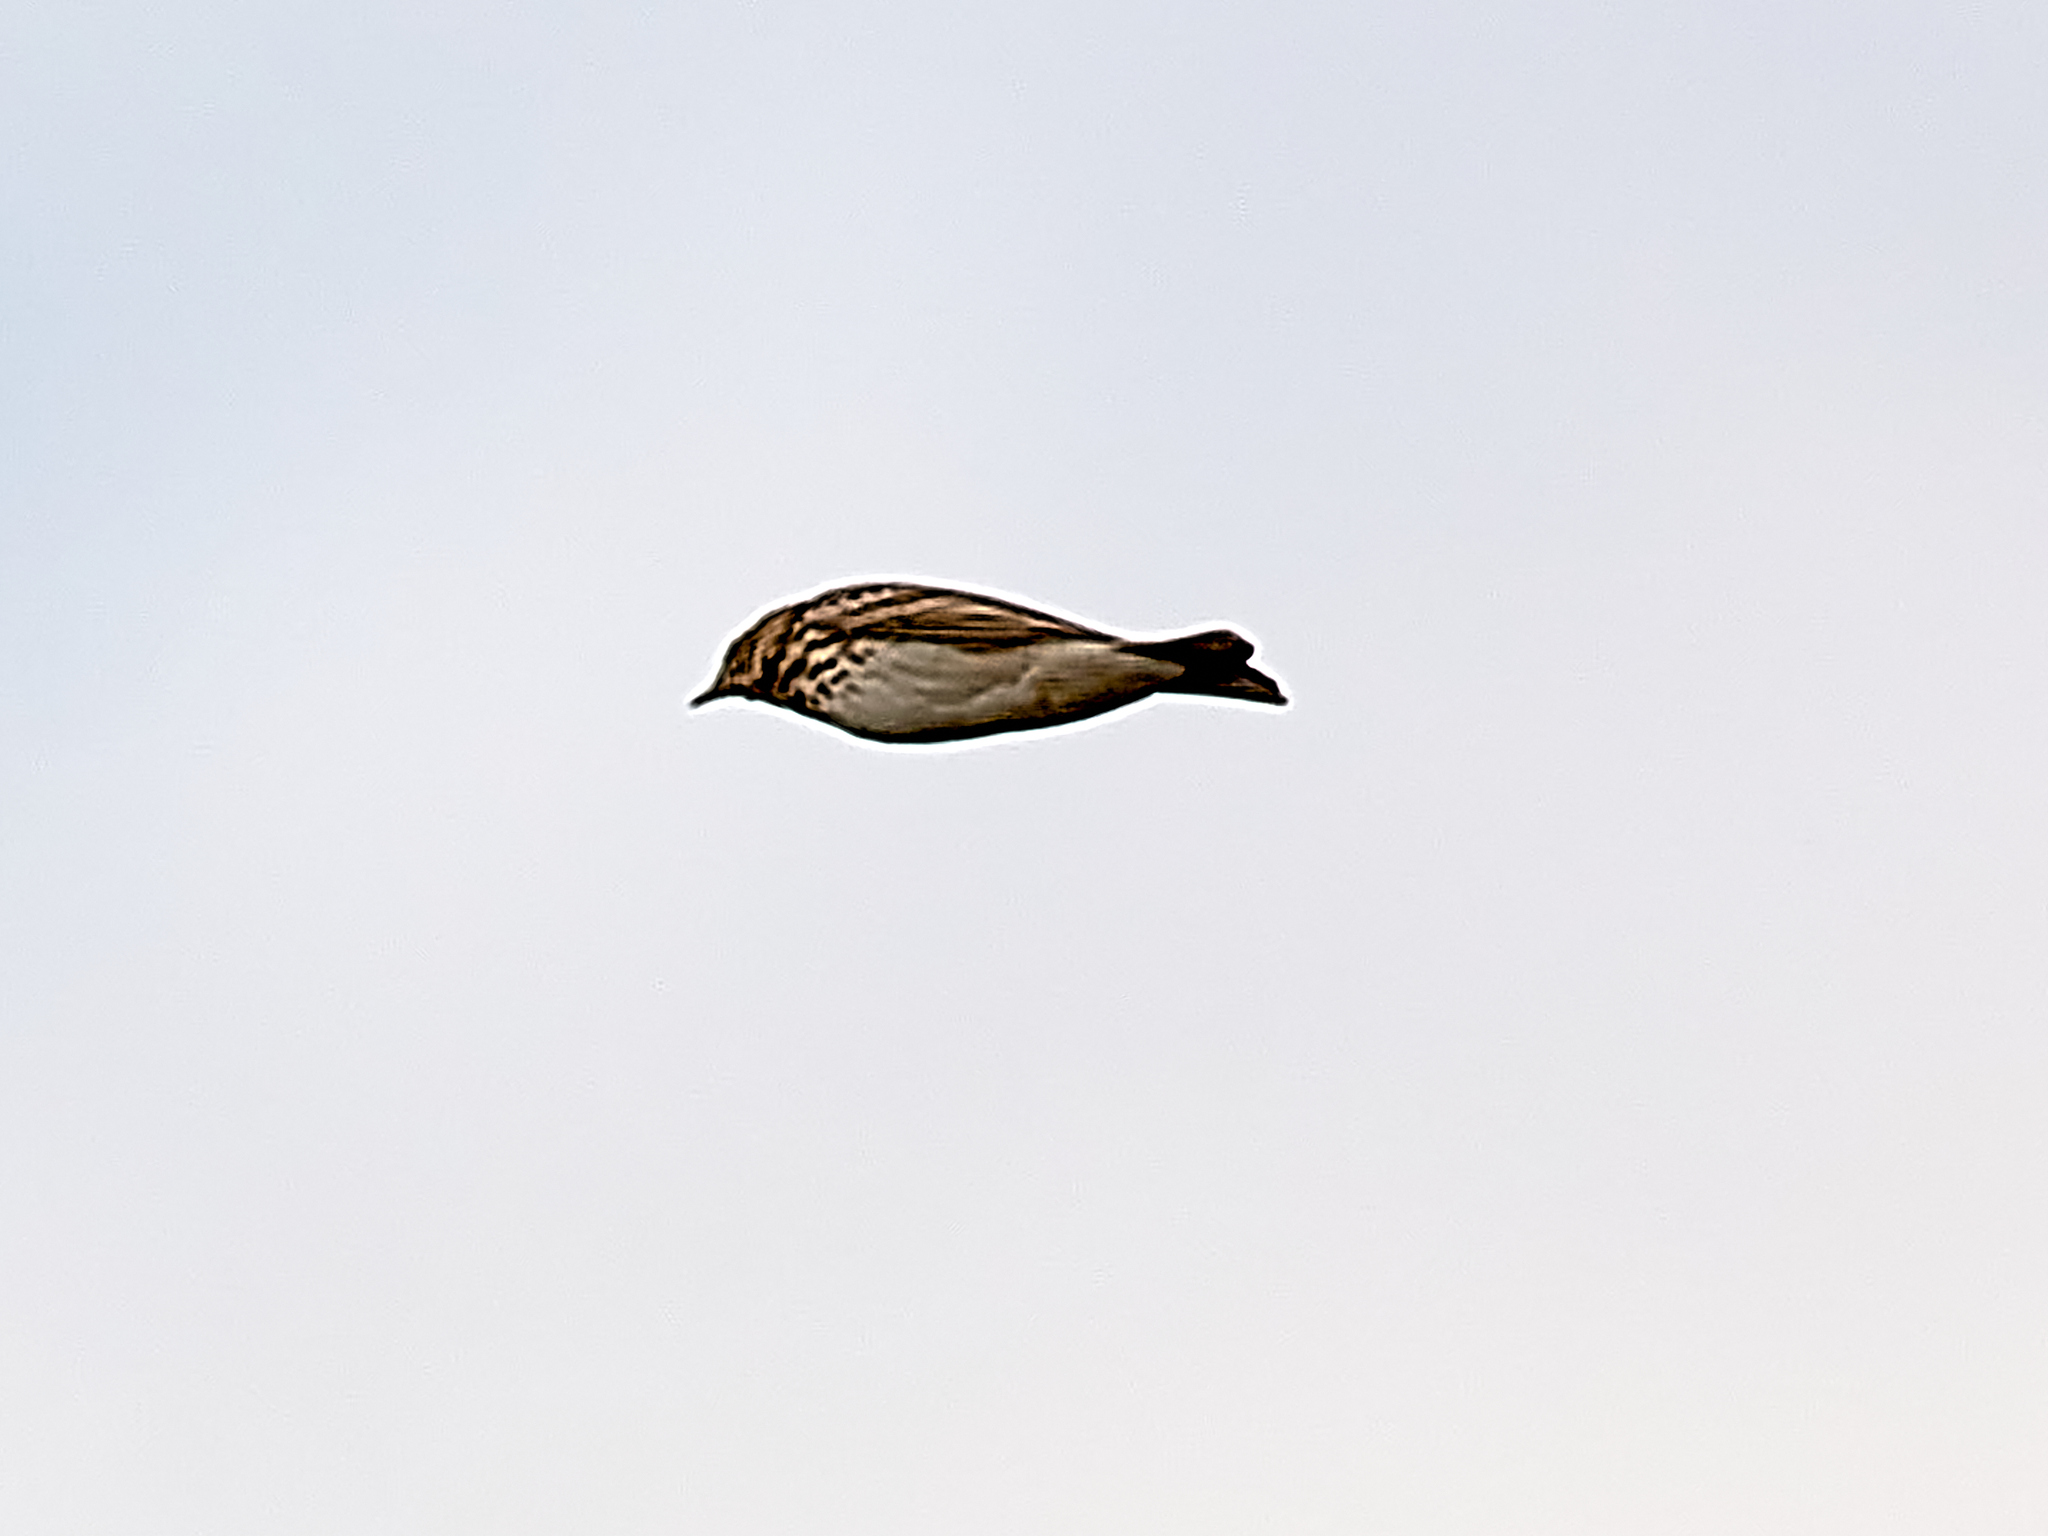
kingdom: Animalia
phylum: Chordata
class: Aves
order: Passeriformes
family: Motacillidae
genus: Anthus
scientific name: Anthus trivialis
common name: Tree pipit
